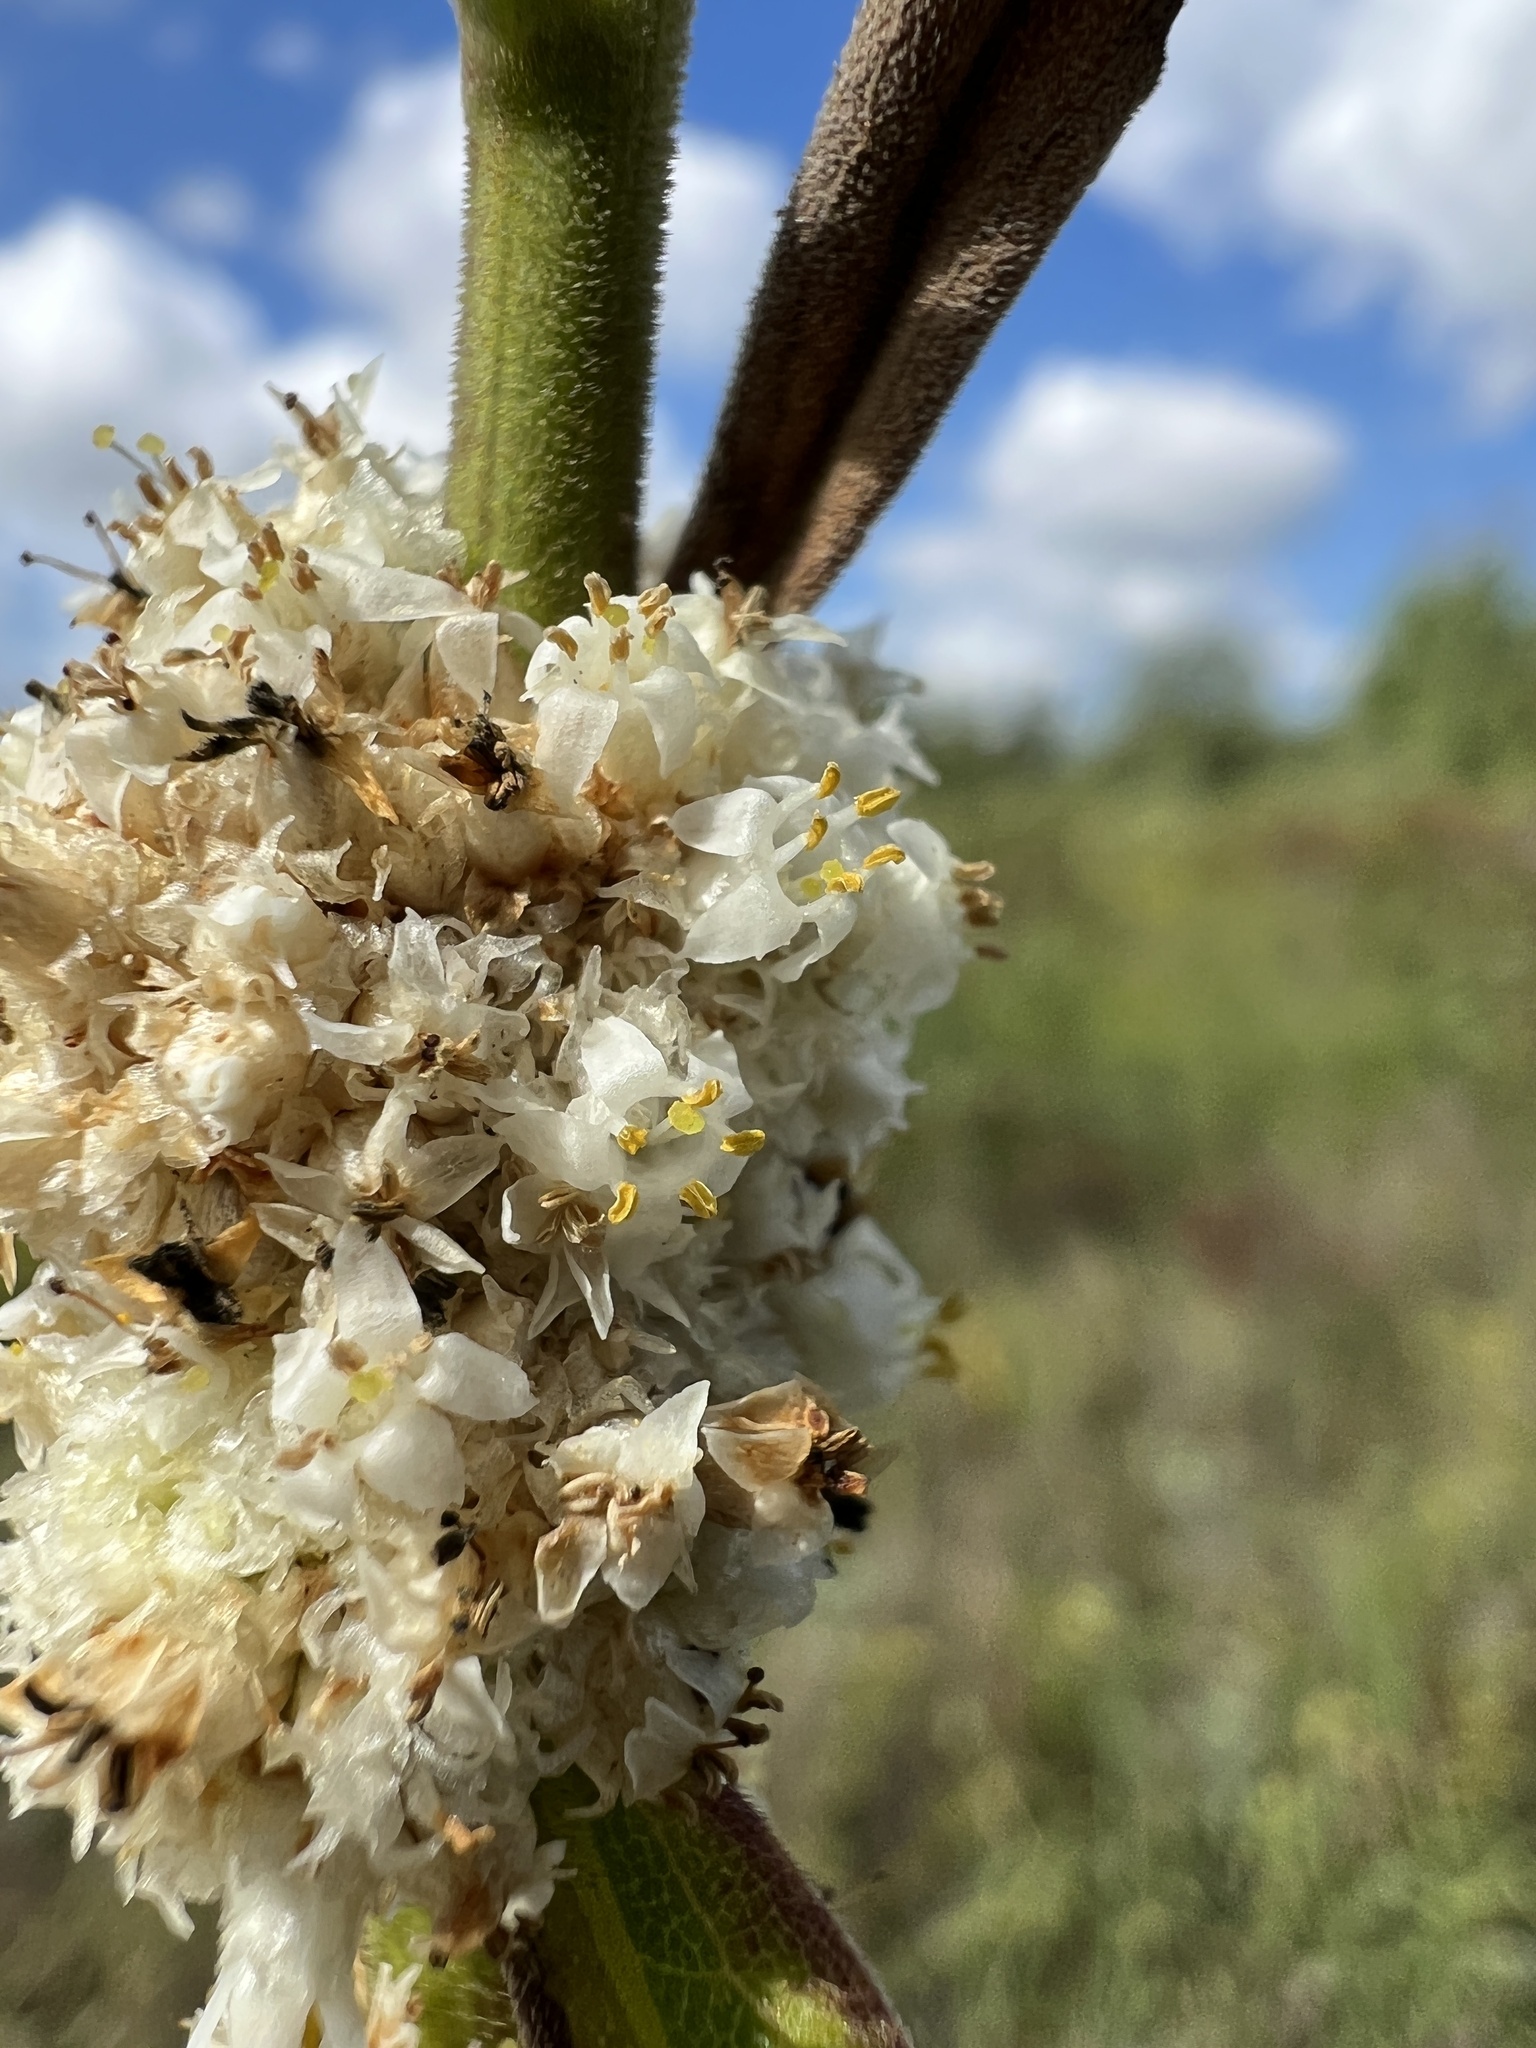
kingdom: Plantae
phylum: Tracheophyta
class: Magnoliopsida
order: Solanales
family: Convolvulaceae
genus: Cuscuta
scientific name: Cuscuta glomerata
